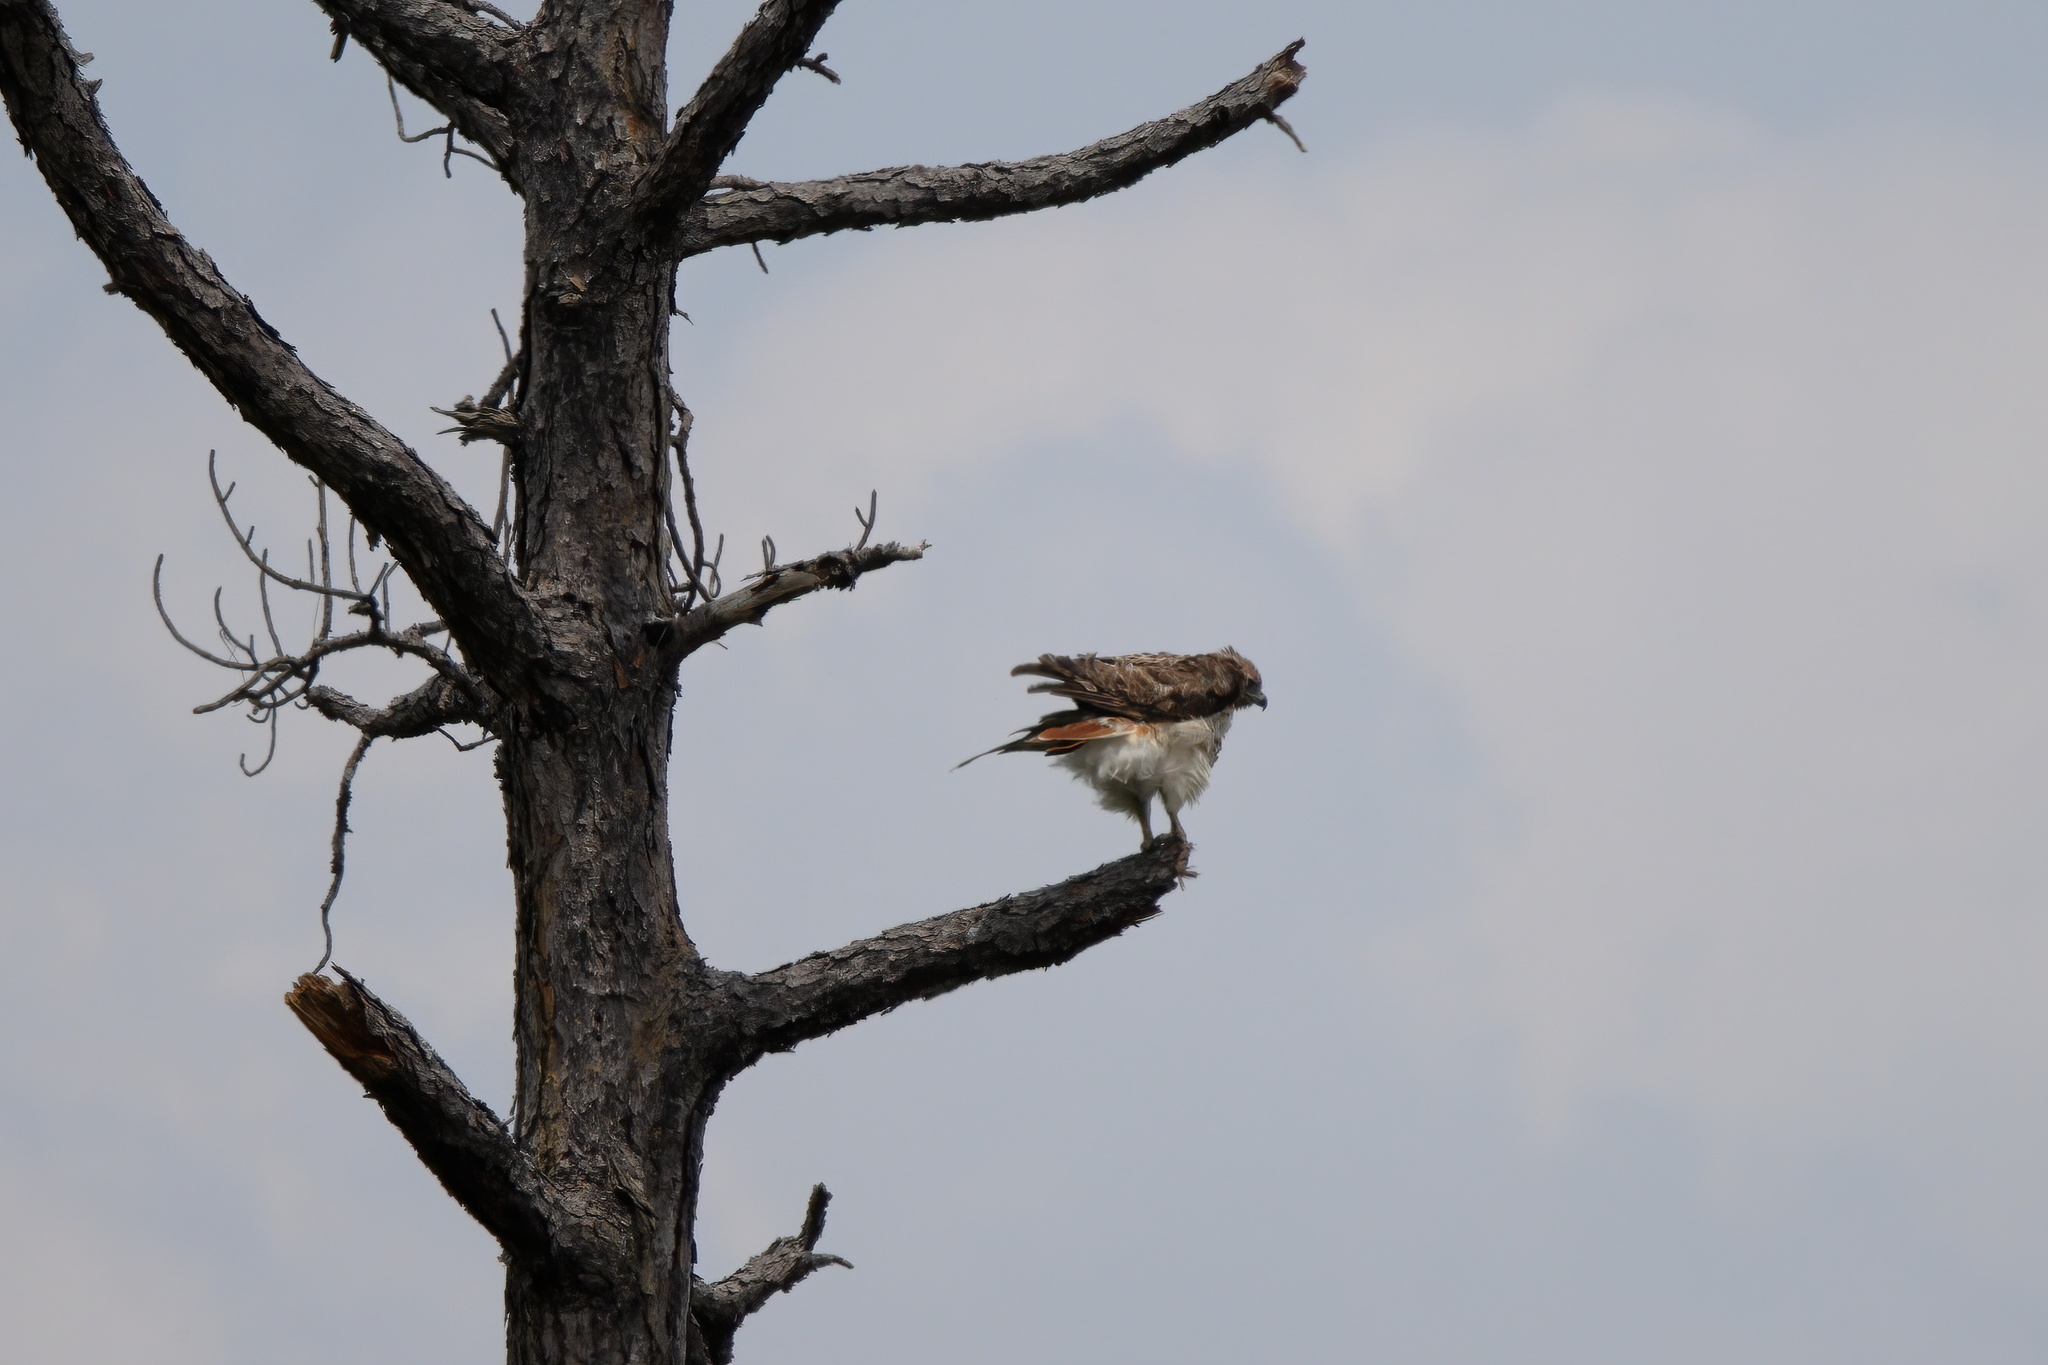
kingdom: Animalia
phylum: Chordata
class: Aves
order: Accipitriformes
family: Accipitridae
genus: Buteo
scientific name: Buteo jamaicensis
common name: Red-tailed hawk
